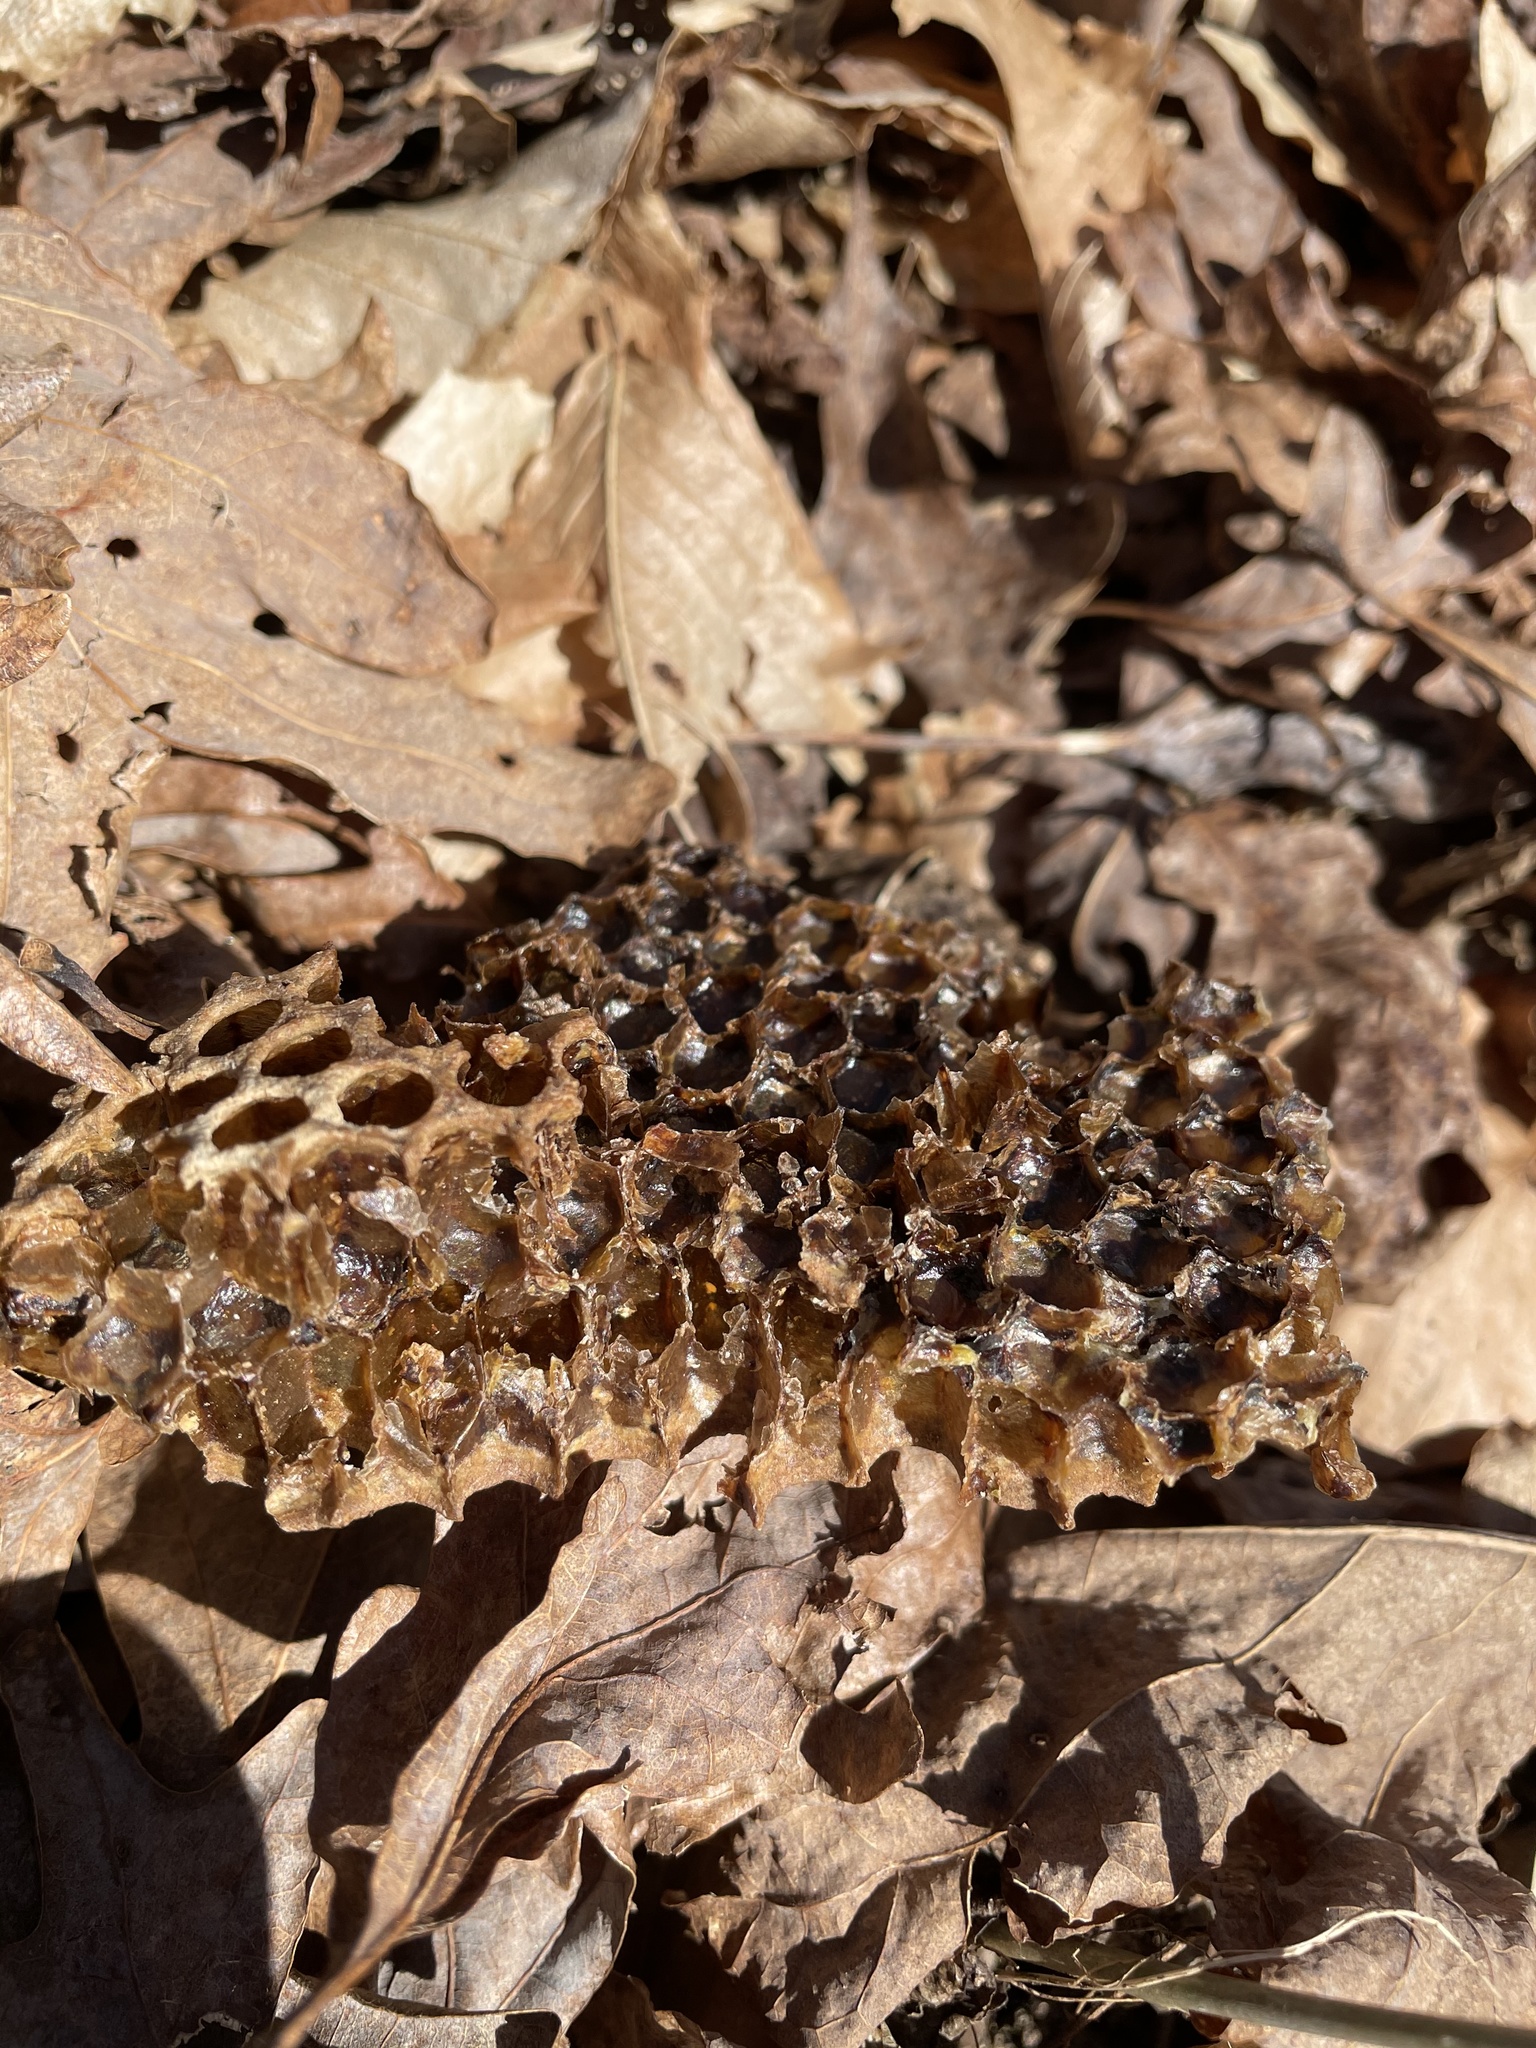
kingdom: Animalia
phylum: Arthropoda
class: Insecta
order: Hymenoptera
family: Apidae
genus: Apis
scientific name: Apis mellifera
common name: Honey bee
